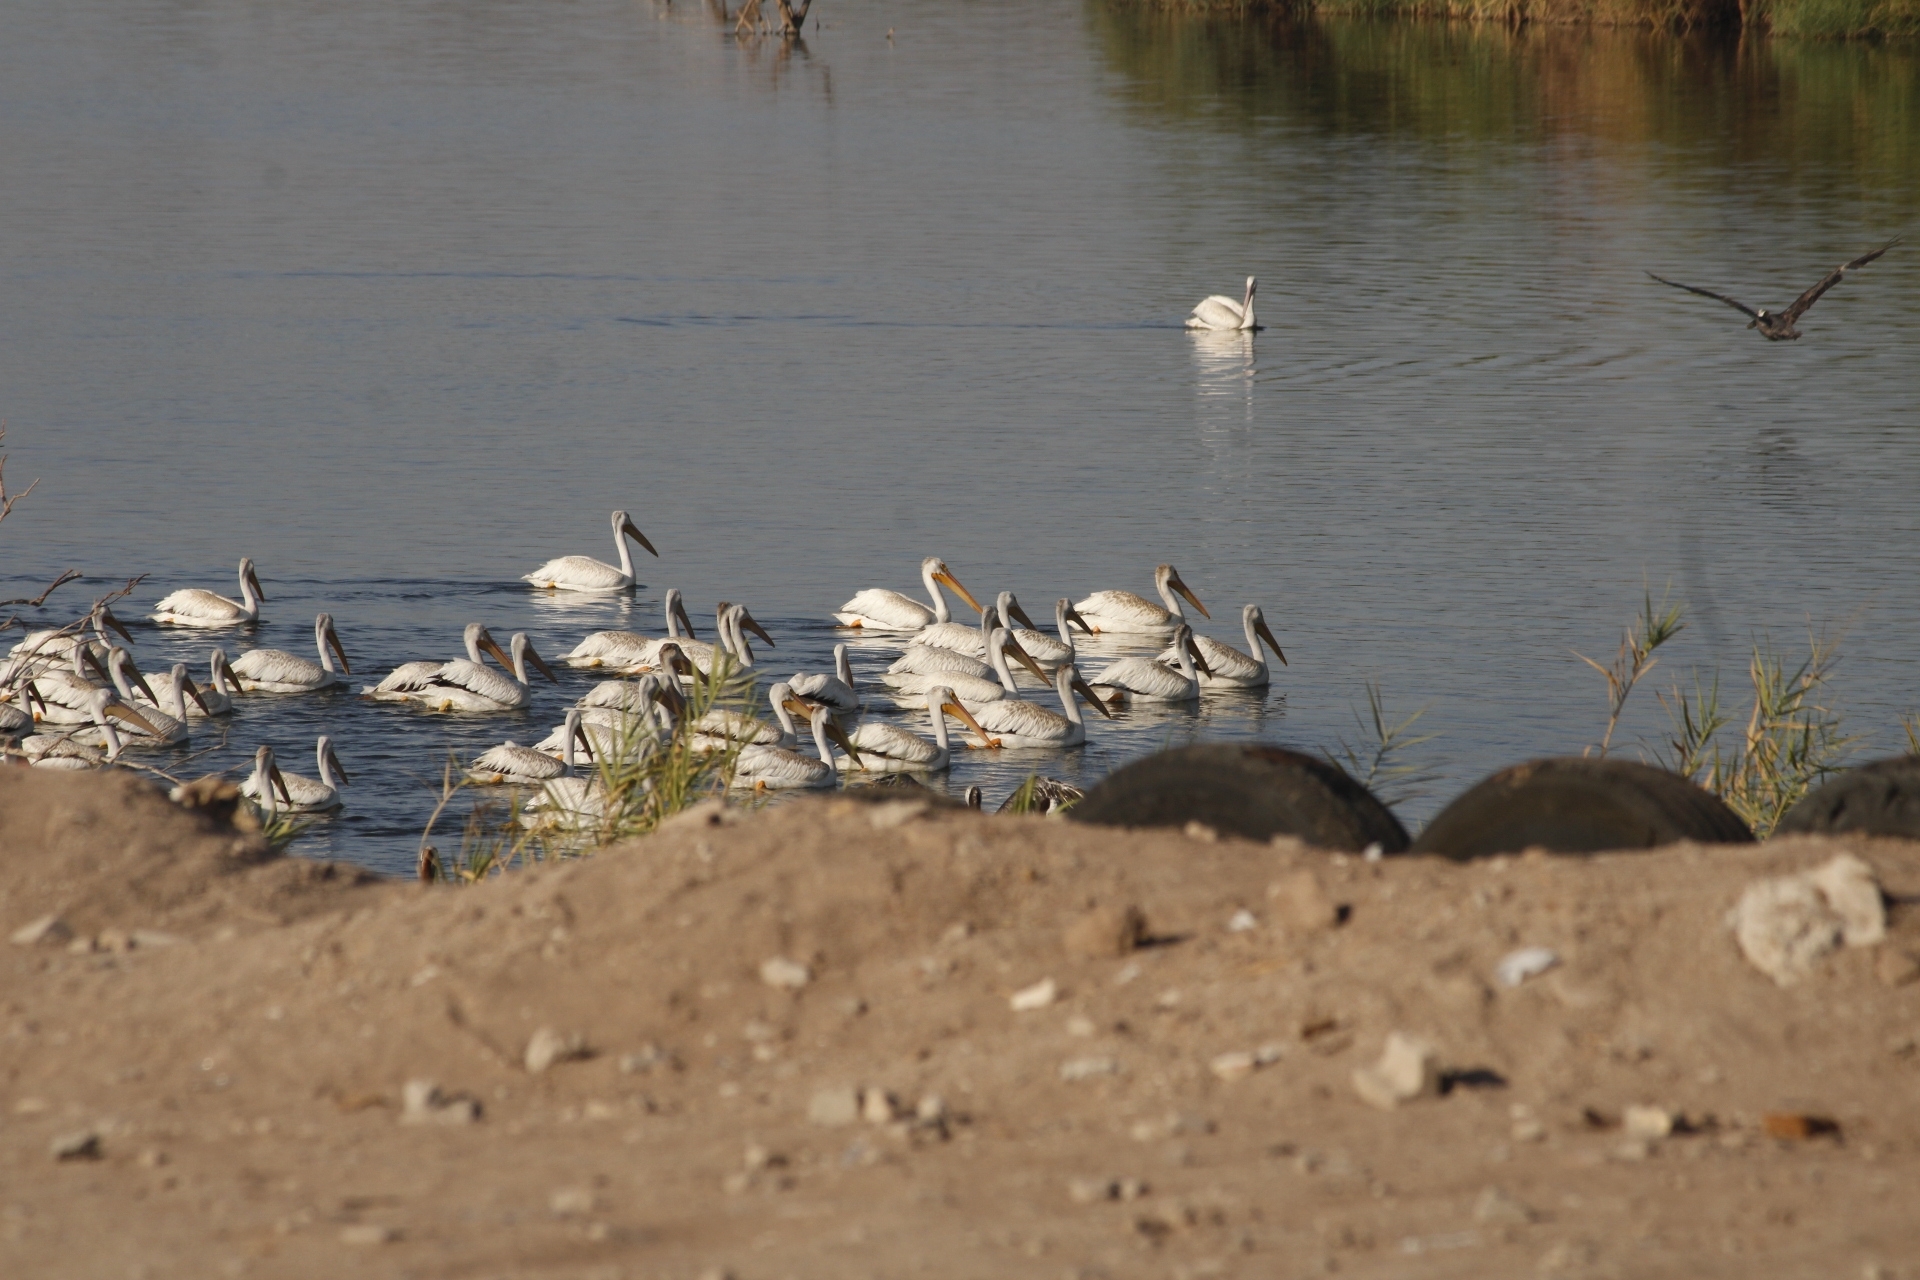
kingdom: Animalia
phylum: Chordata
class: Aves
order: Pelecaniformes
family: Pelecanidae
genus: Pelecanus
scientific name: Pelecanus erythrorhynchos
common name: American white pelican
